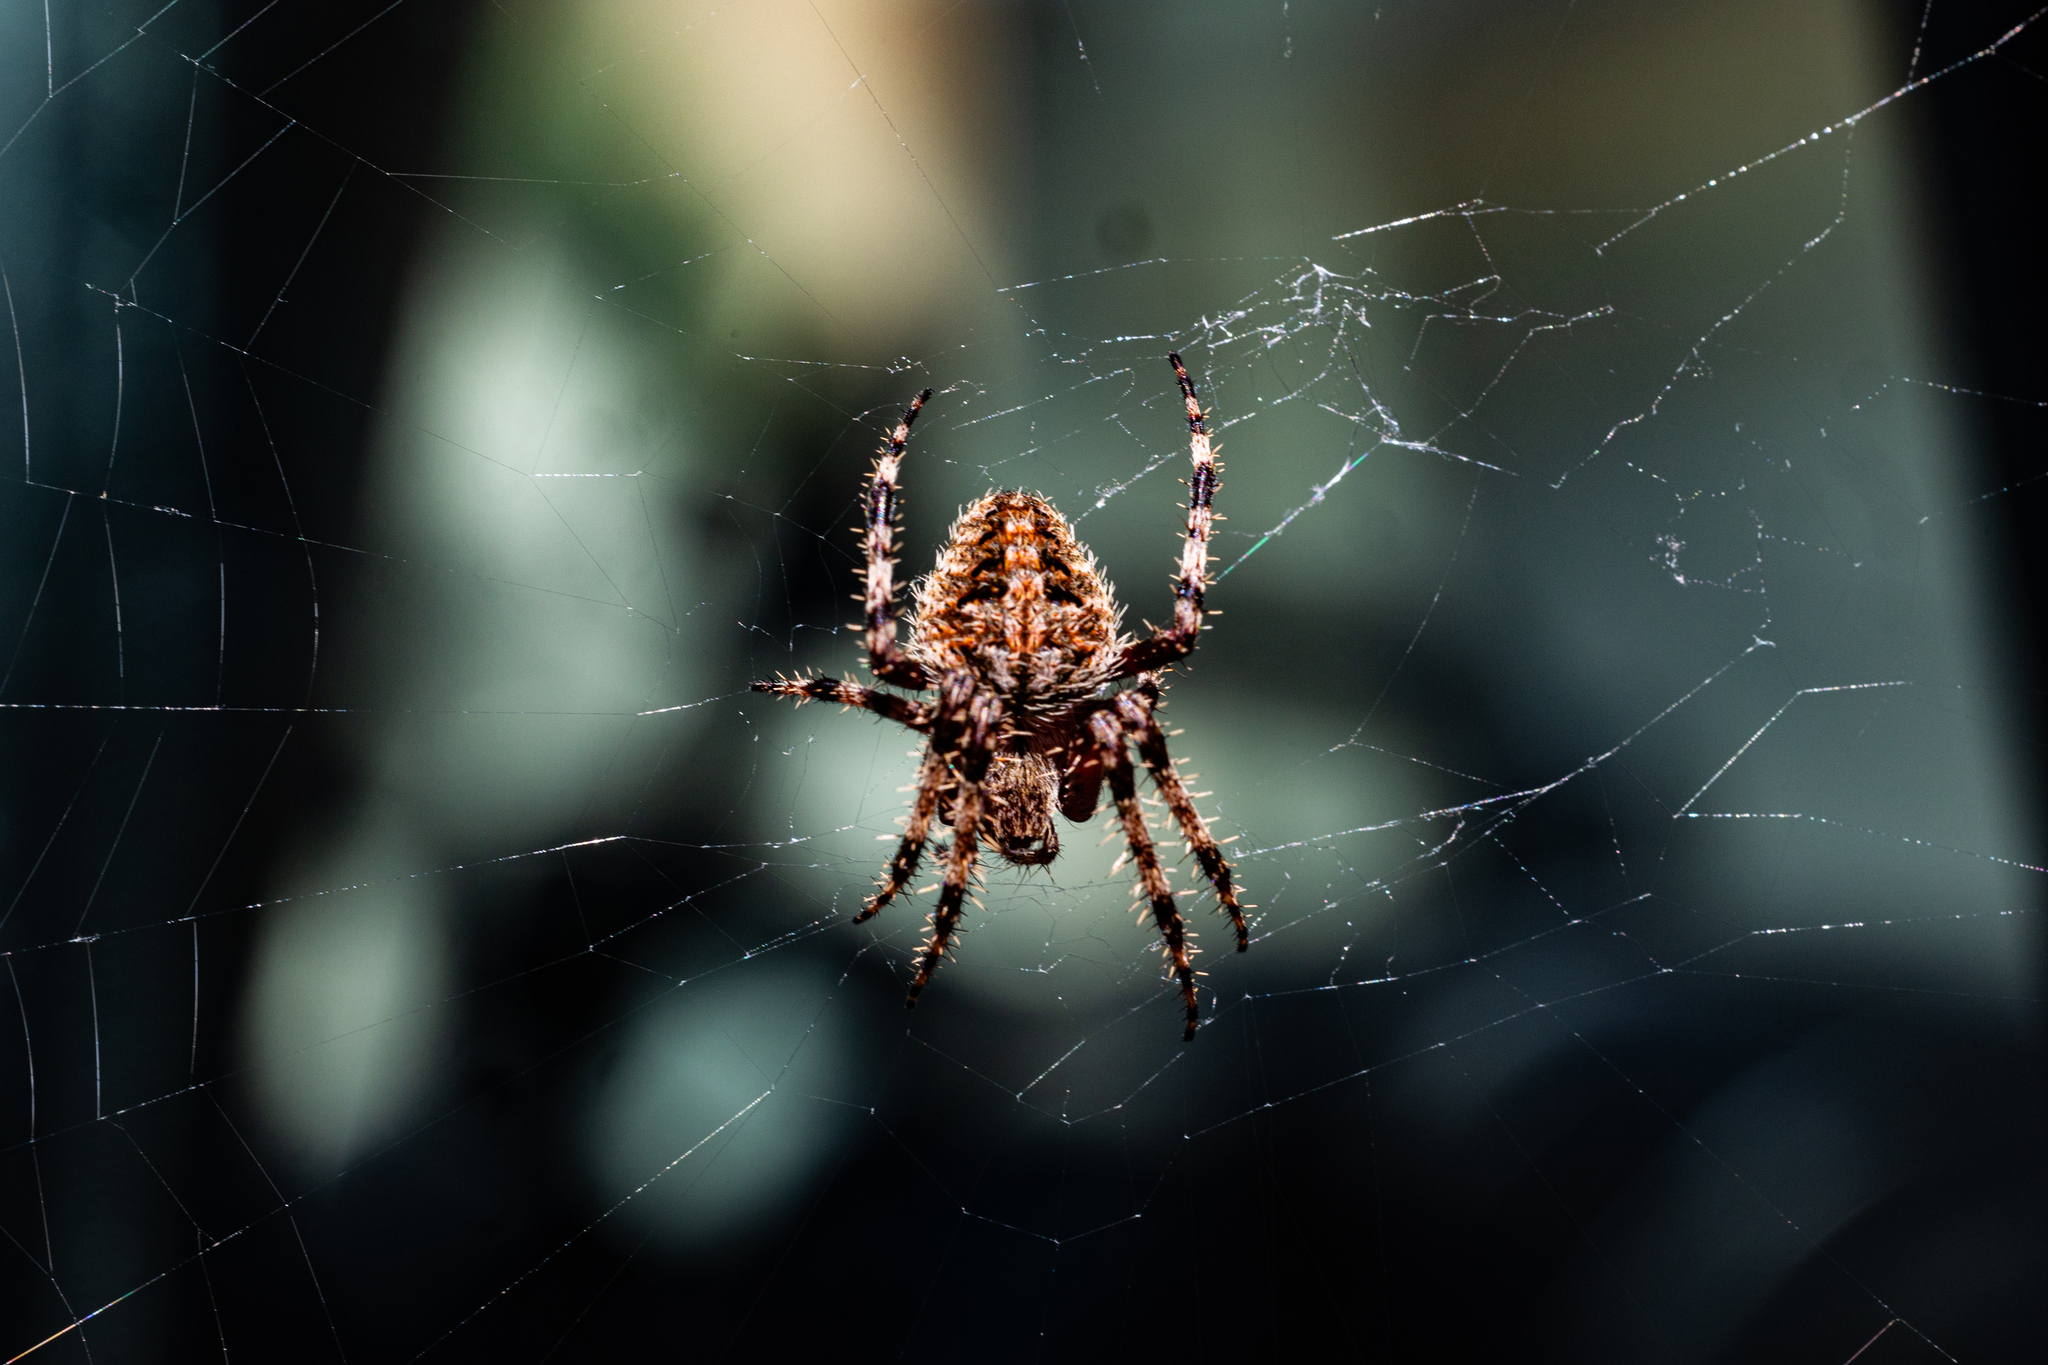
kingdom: Animalia
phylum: Arthropoda
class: Arachnida
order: Araneae
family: Araneidae
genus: Neoscona
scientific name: Neoscona crucifera
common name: Spotted orbweaver
